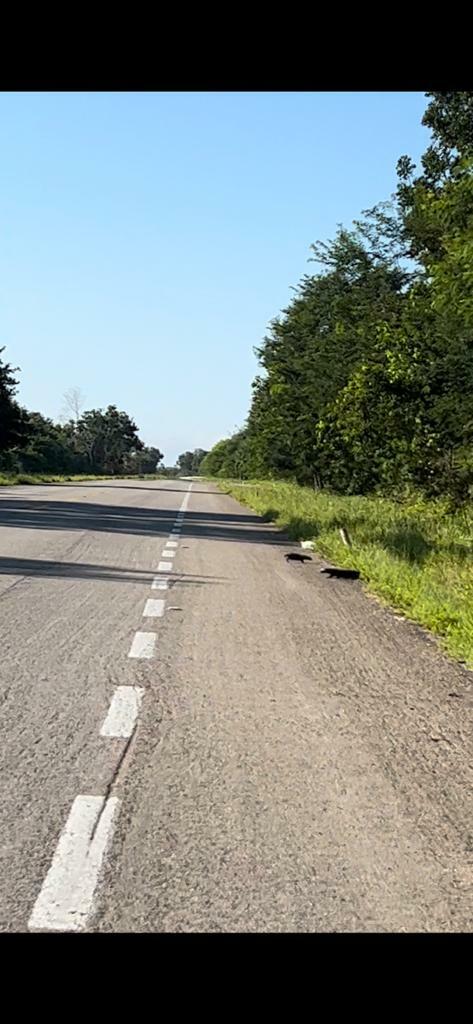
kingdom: Animalia
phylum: Chordata
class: Mammalia
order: Carnivora
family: Mustelidae
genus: Galictis
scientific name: Galictis vittata
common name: Greater grison
